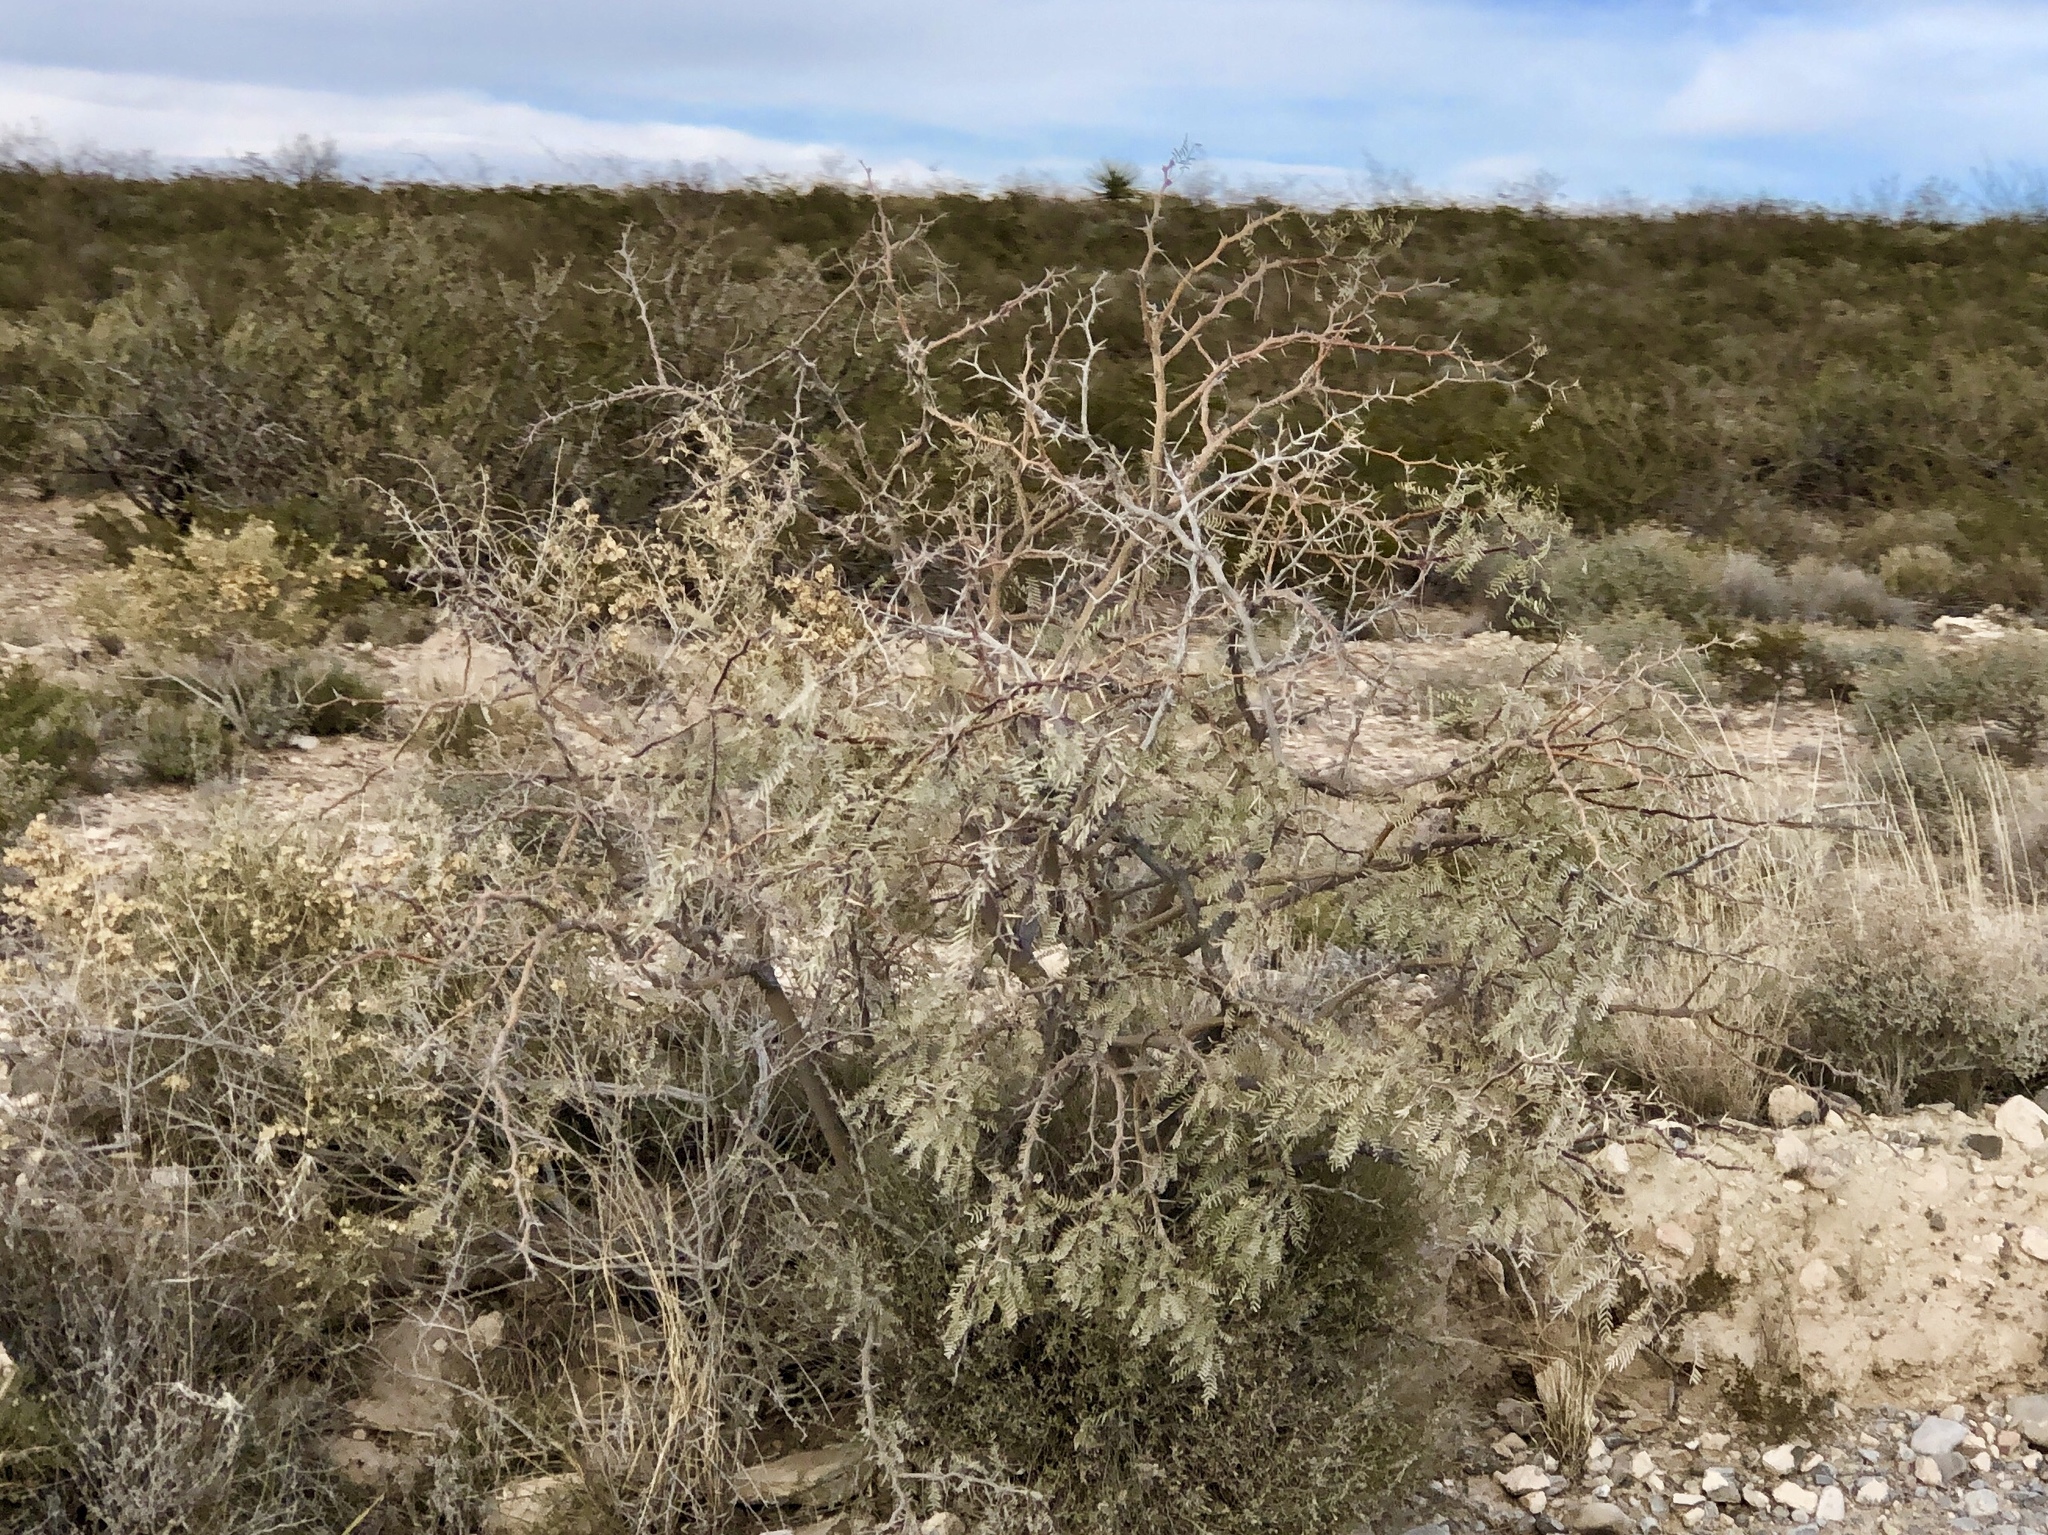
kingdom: Plantae
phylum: Tracheophyta
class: Magnoliopsida
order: Fabales
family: Fabaceae
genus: Prosopis
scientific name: Prosopis glandulosa
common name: Honey mesquite
